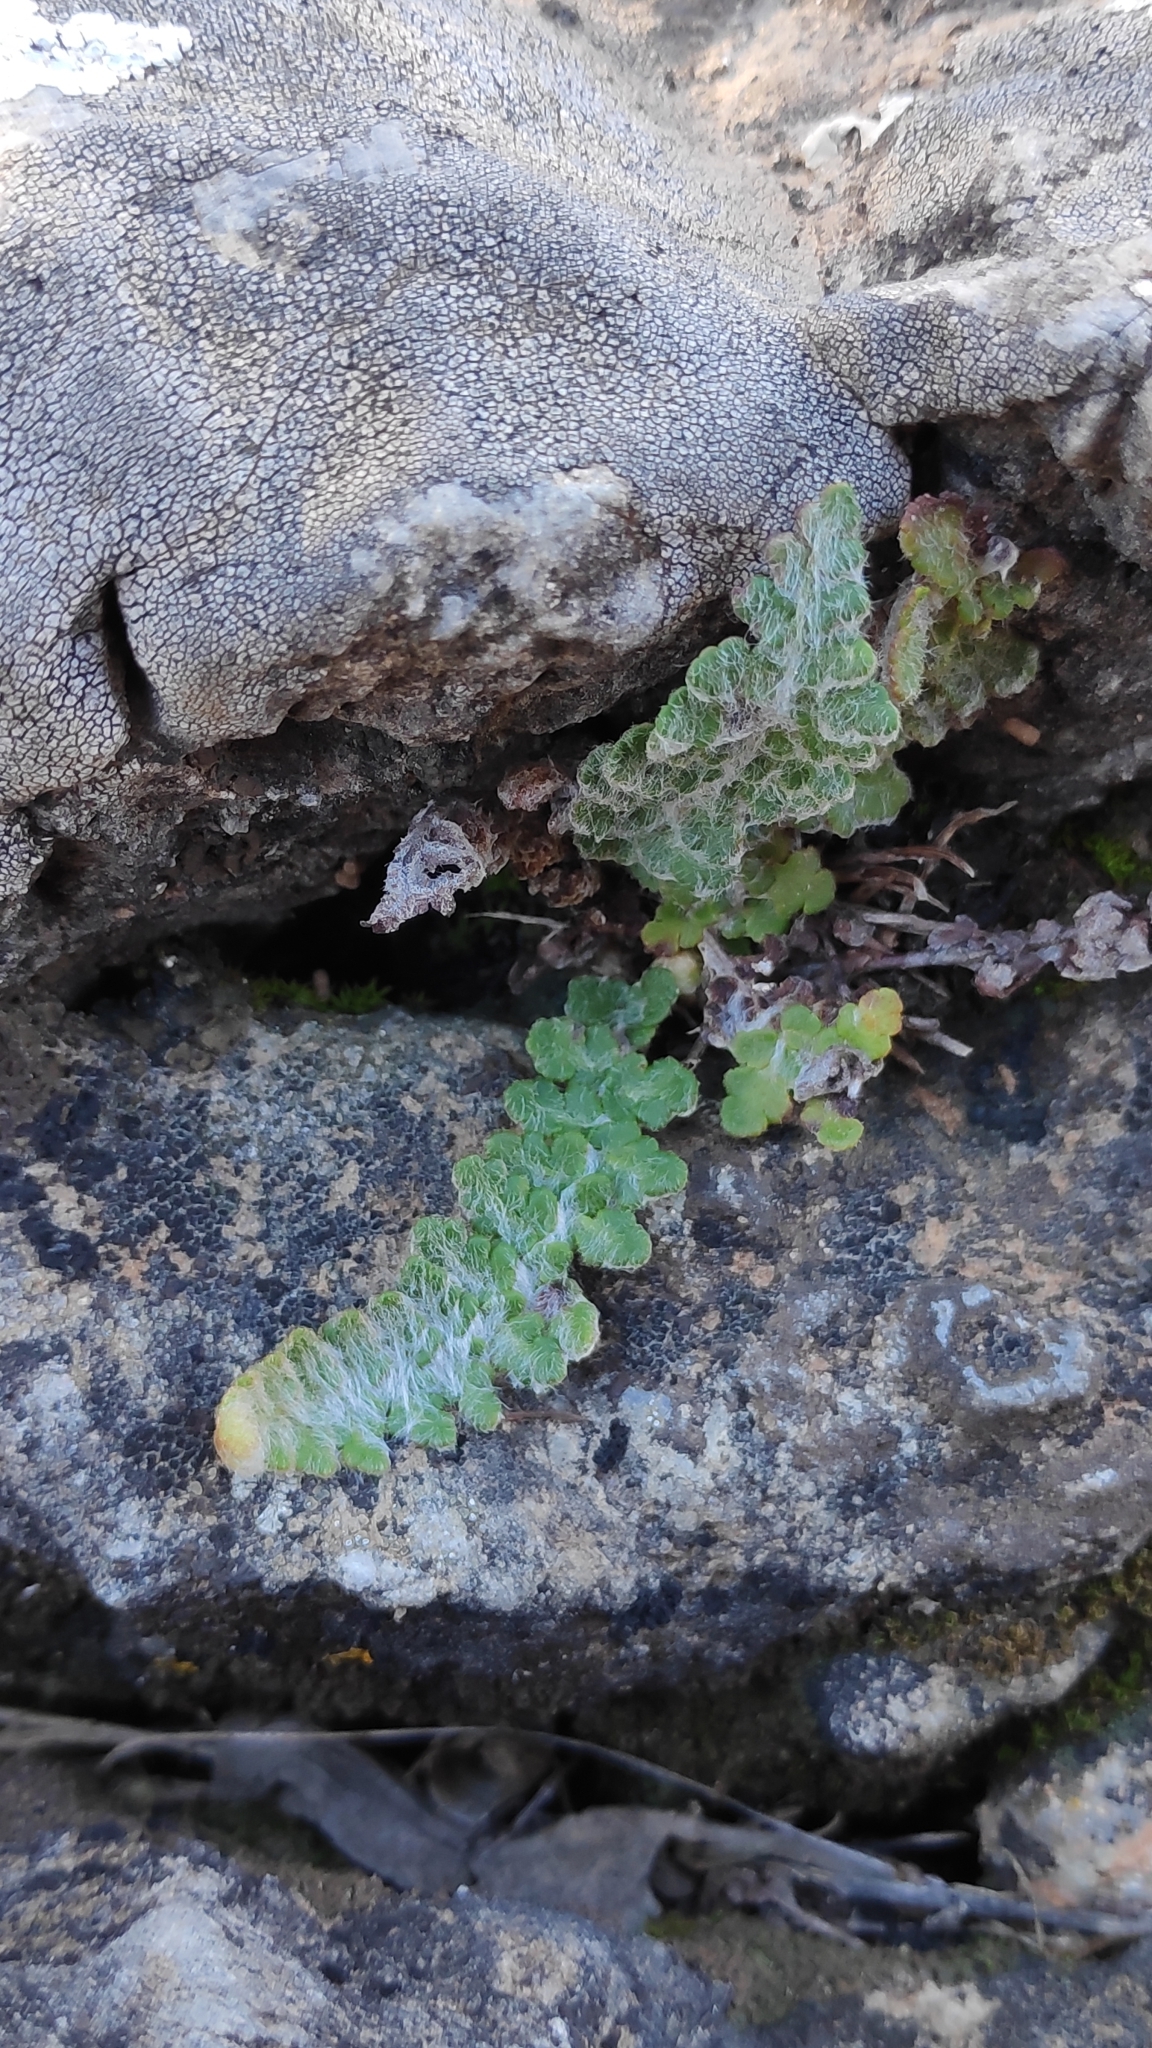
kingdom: Plantae
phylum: Tracheophyta
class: Polypodiopsida
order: Polypodiales
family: Pteridaceae
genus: Cosentinia
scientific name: Cosentinia vellea
